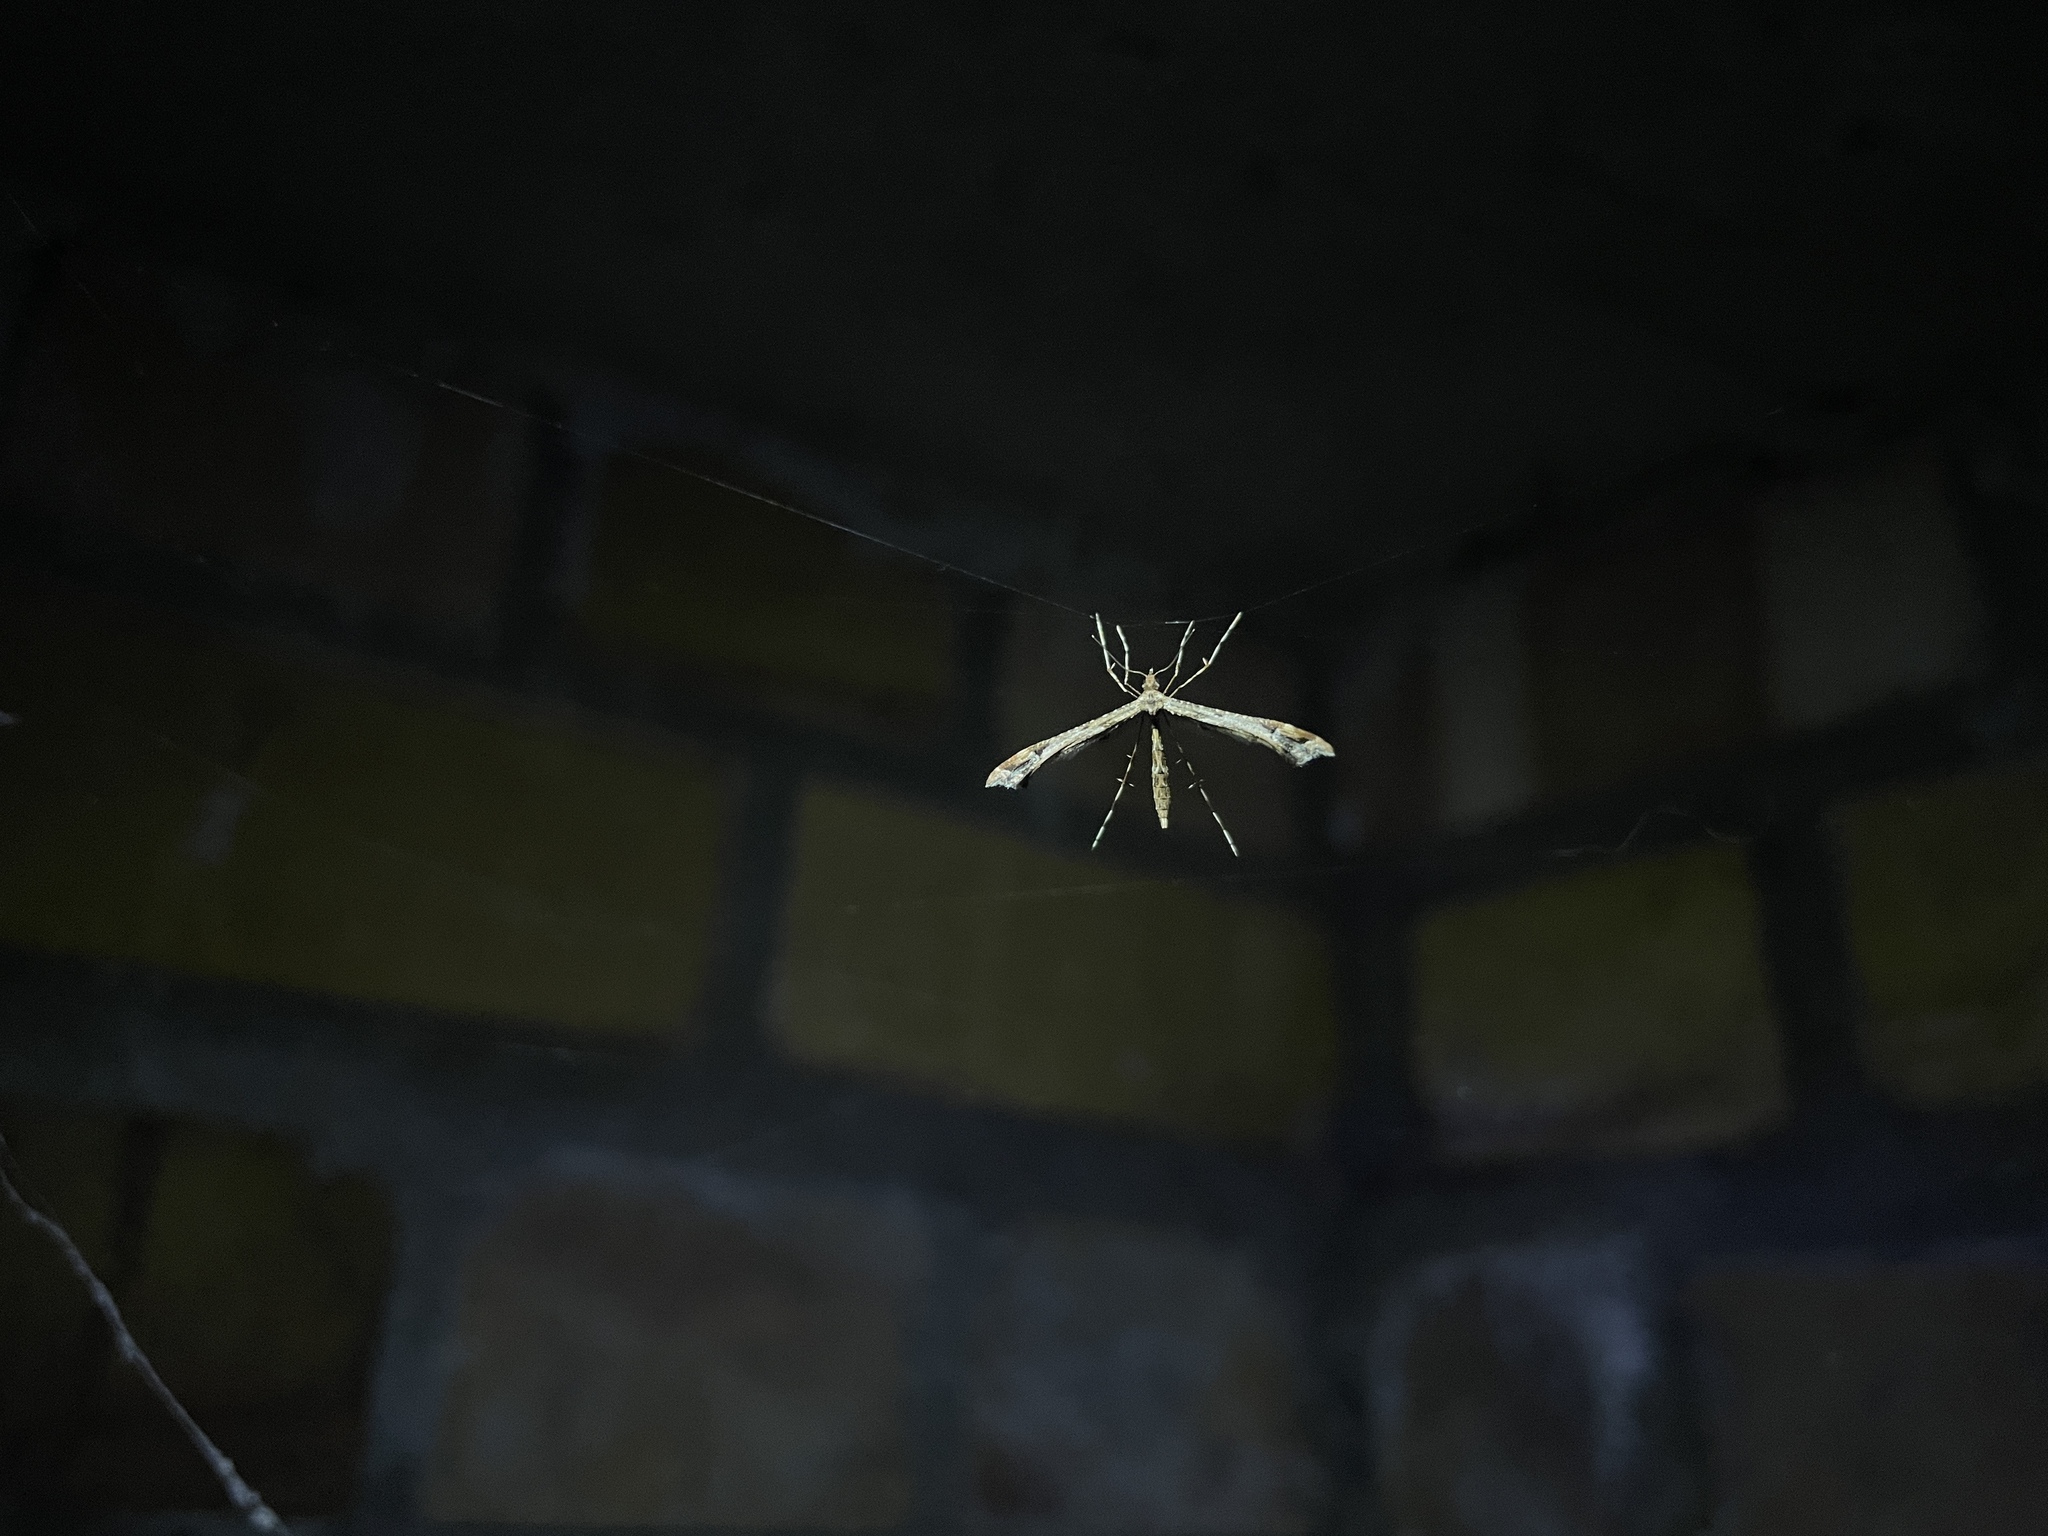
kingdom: Animalia
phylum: Arthropoda
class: Insecta
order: Lepidoptera
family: Pterophoridae
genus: Amblyptilia
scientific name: Amblyptilia acanthadactyla
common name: Beautiful plume
